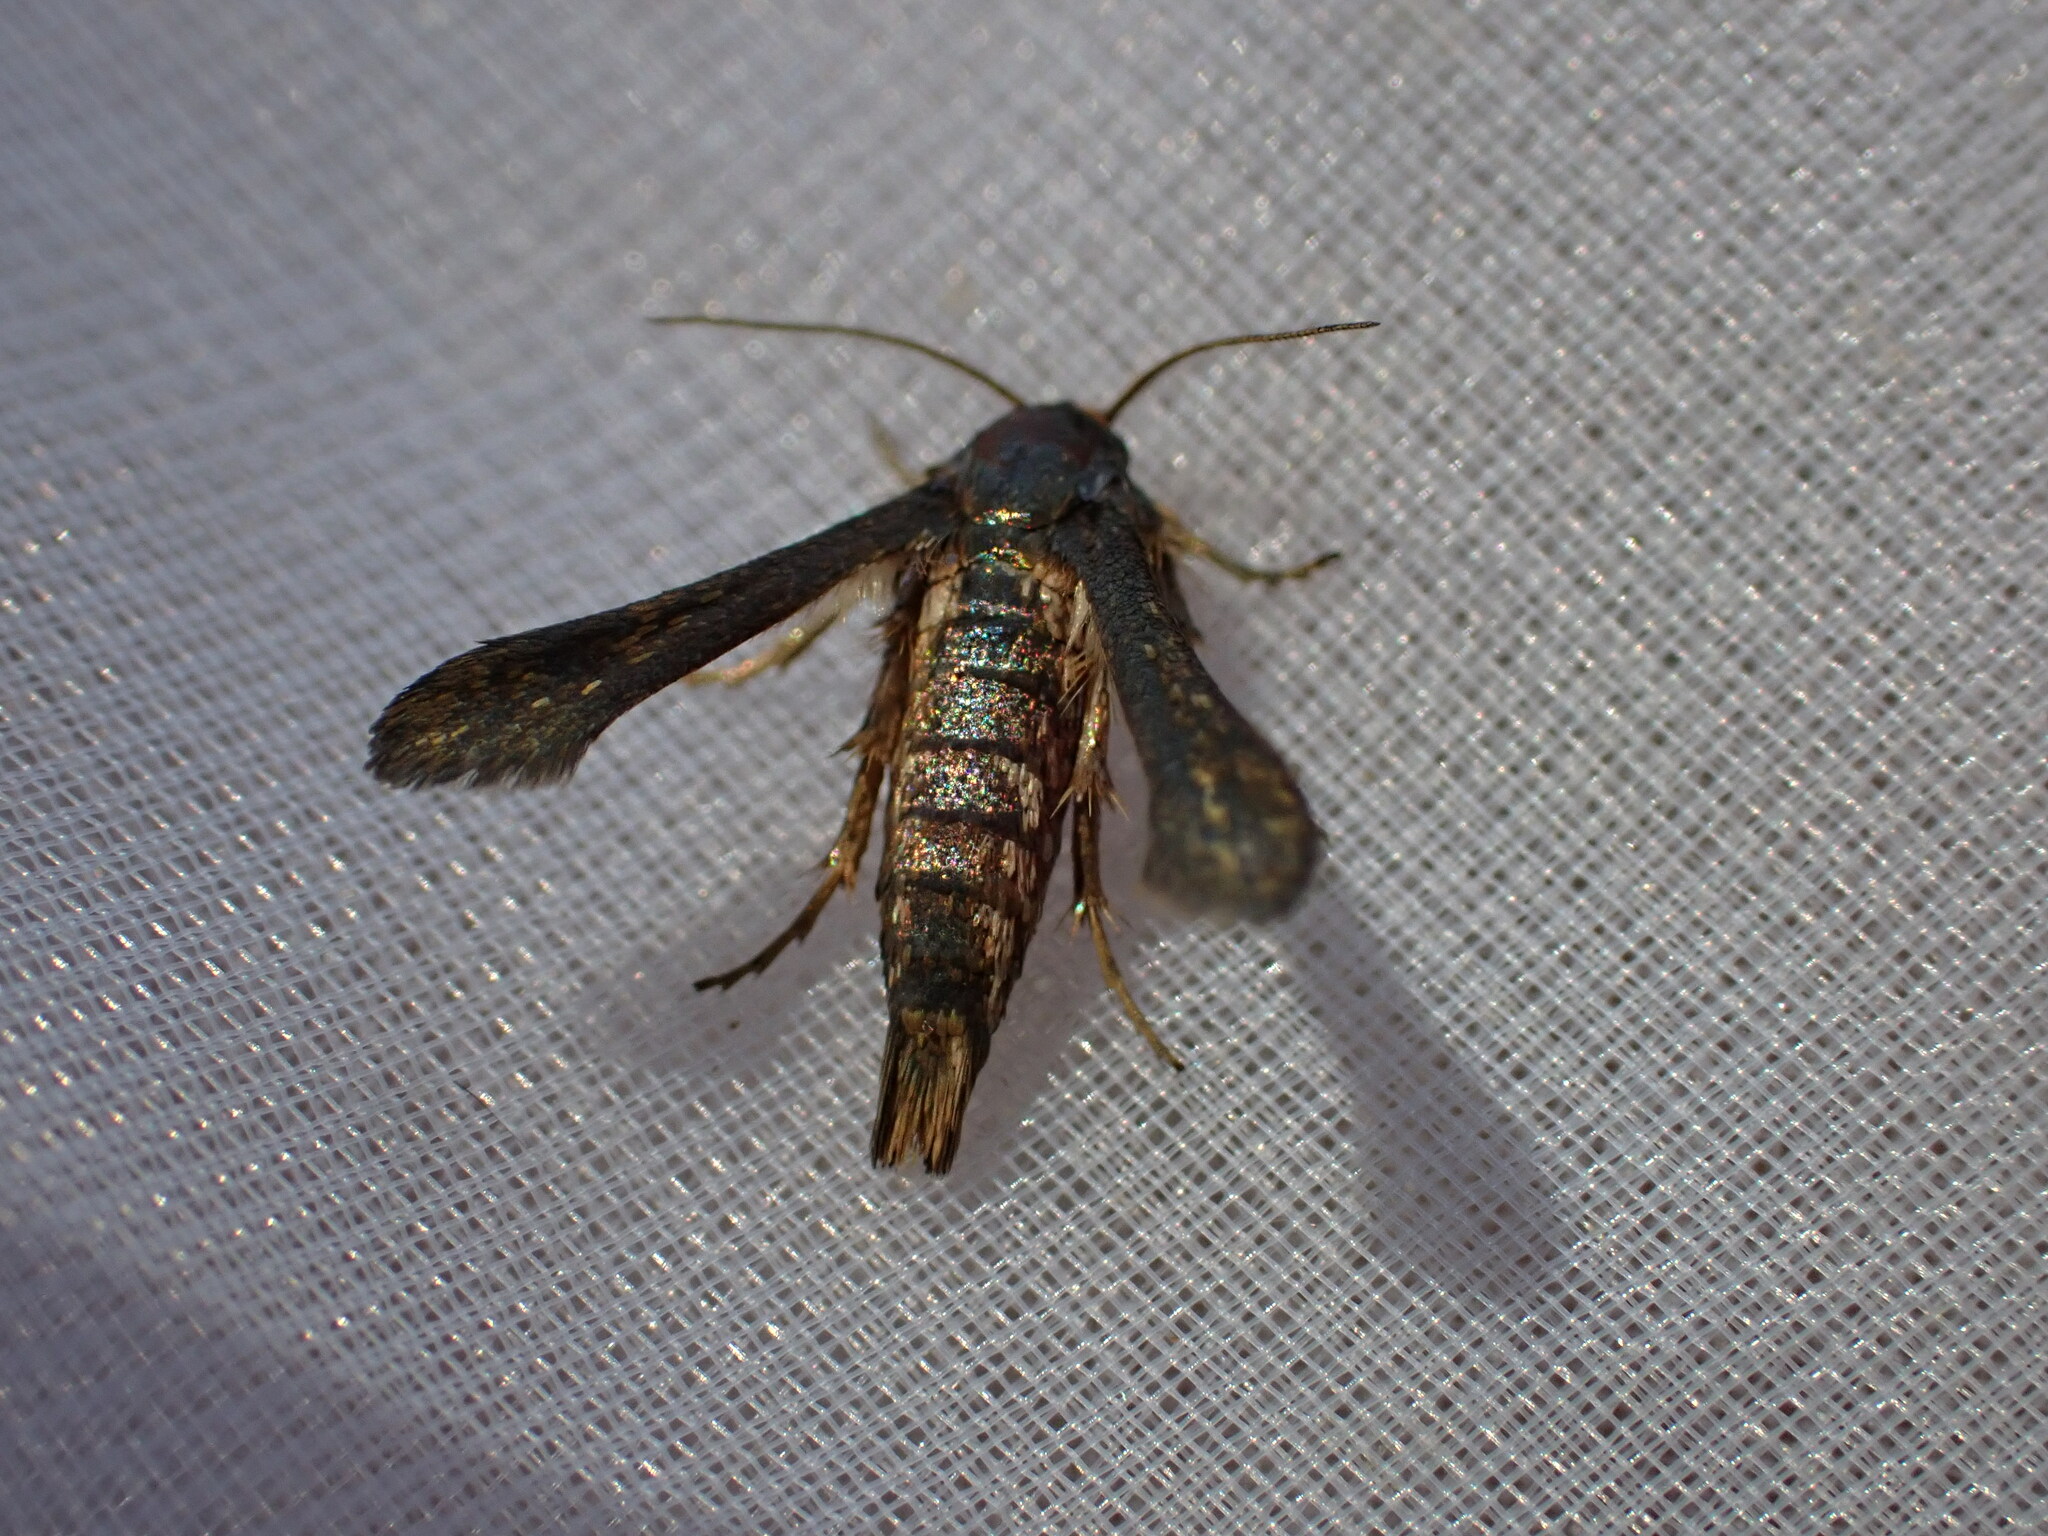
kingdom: Animalia
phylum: Arthropoda
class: Insecta
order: Lepidoptera
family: Sesiidae
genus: Microsphecia
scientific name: Microsphecia tineiformis
